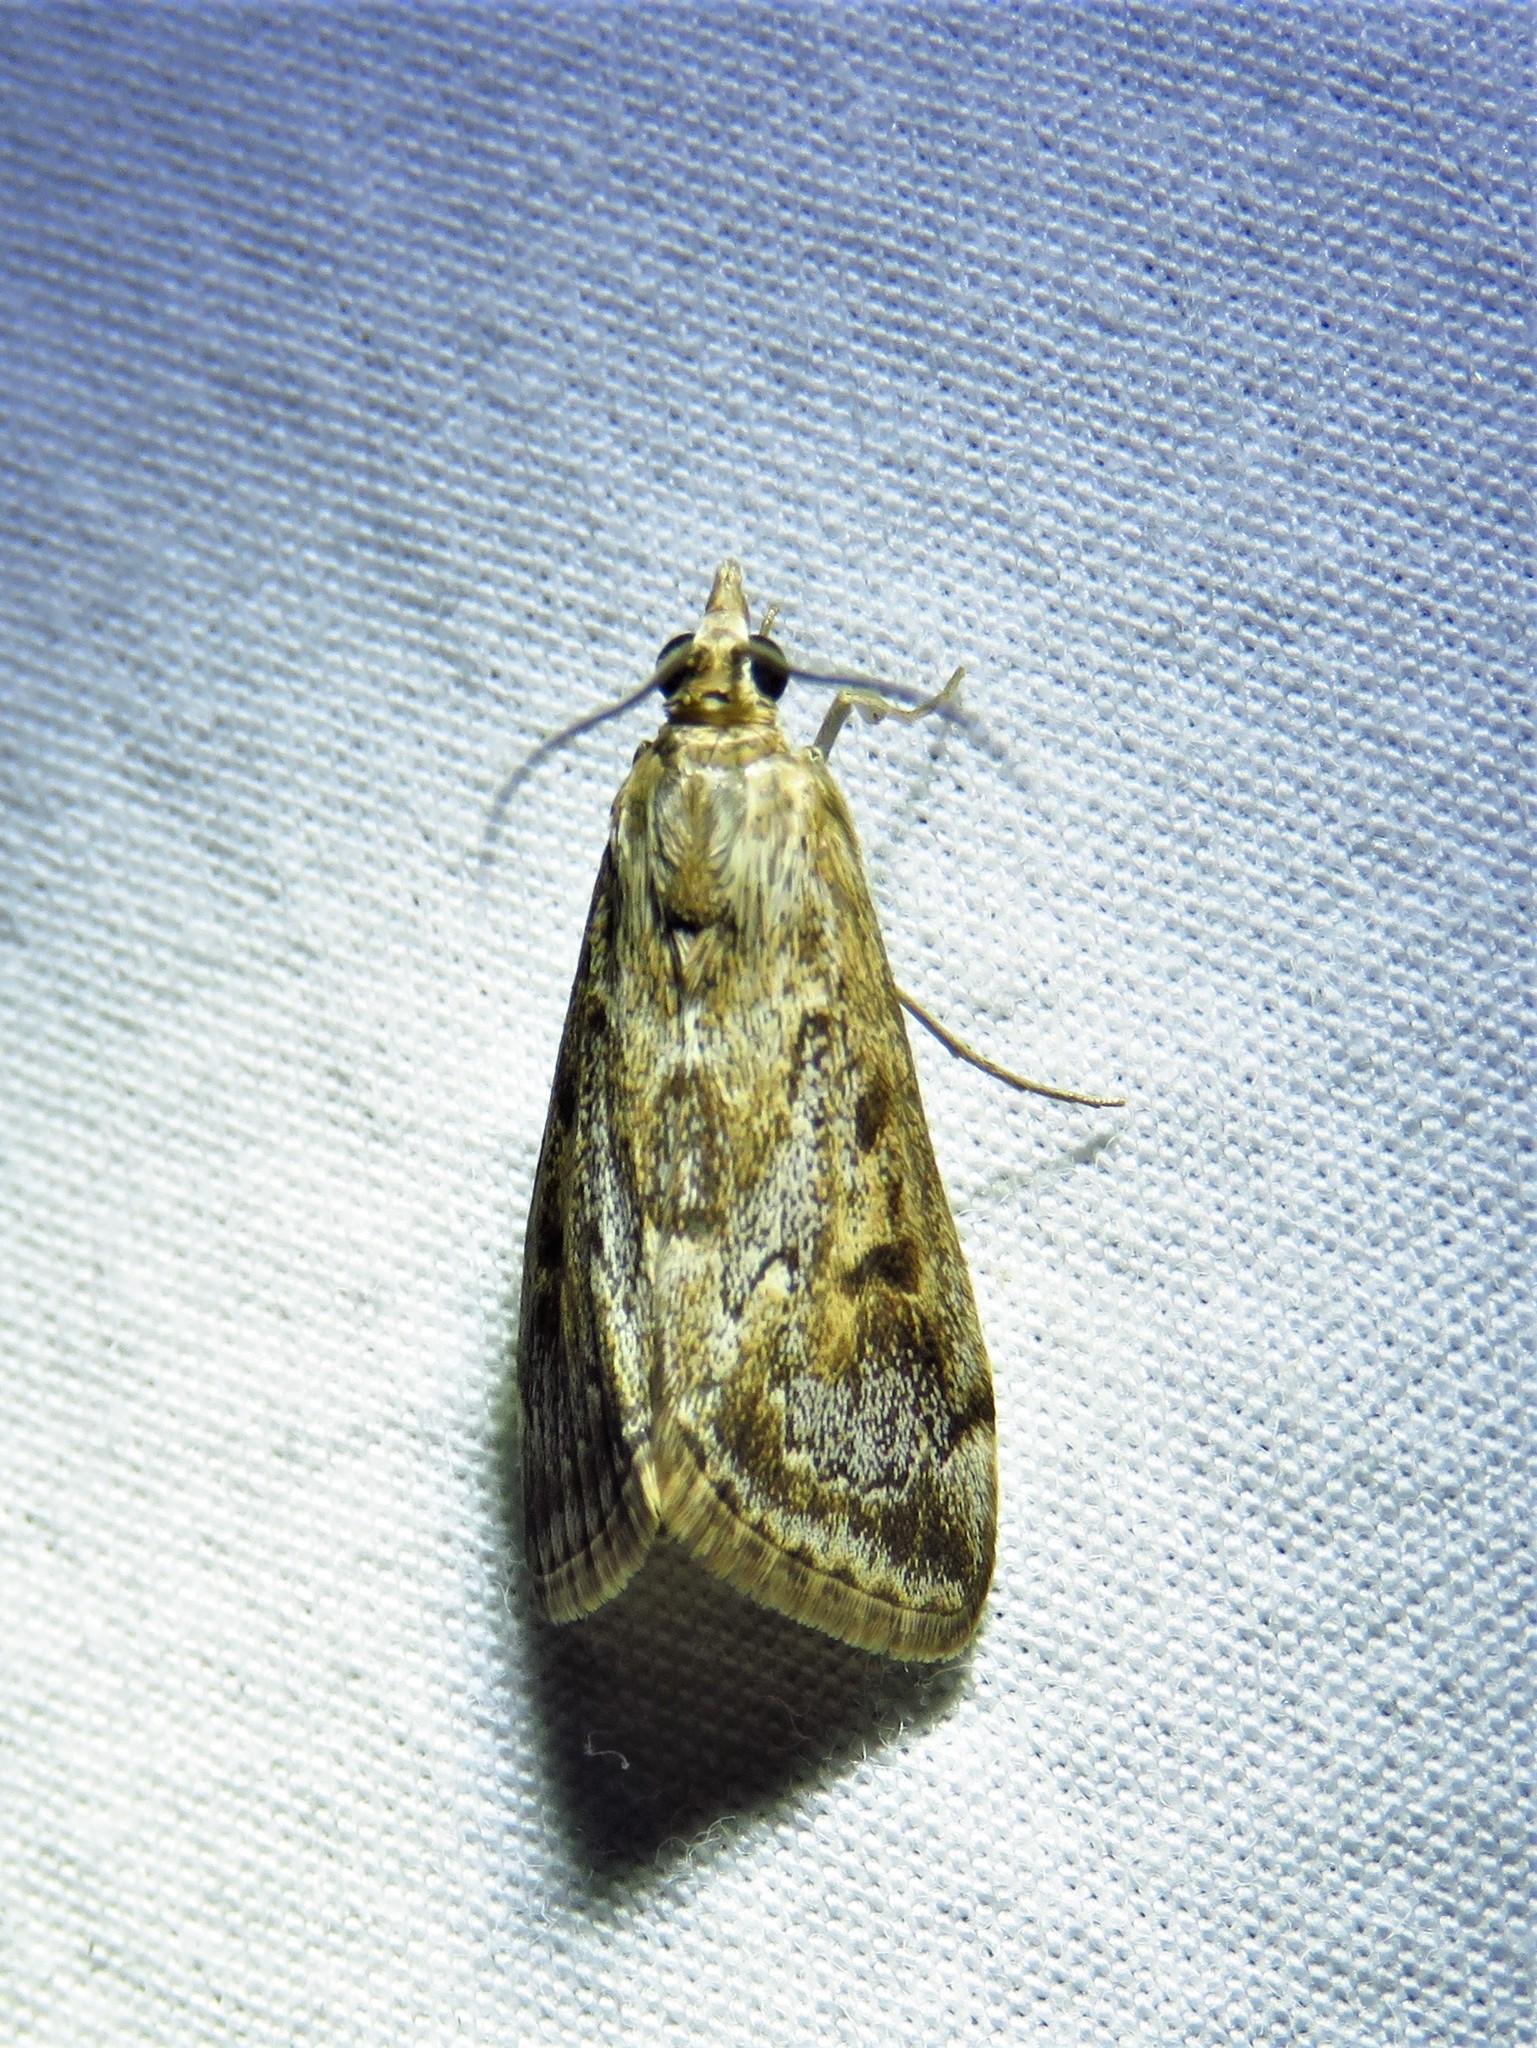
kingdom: Animalia
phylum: Arthropoda
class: Insecta
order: Lepidoptera
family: Crambidae
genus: Loxostege
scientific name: Loxostege allectalis
